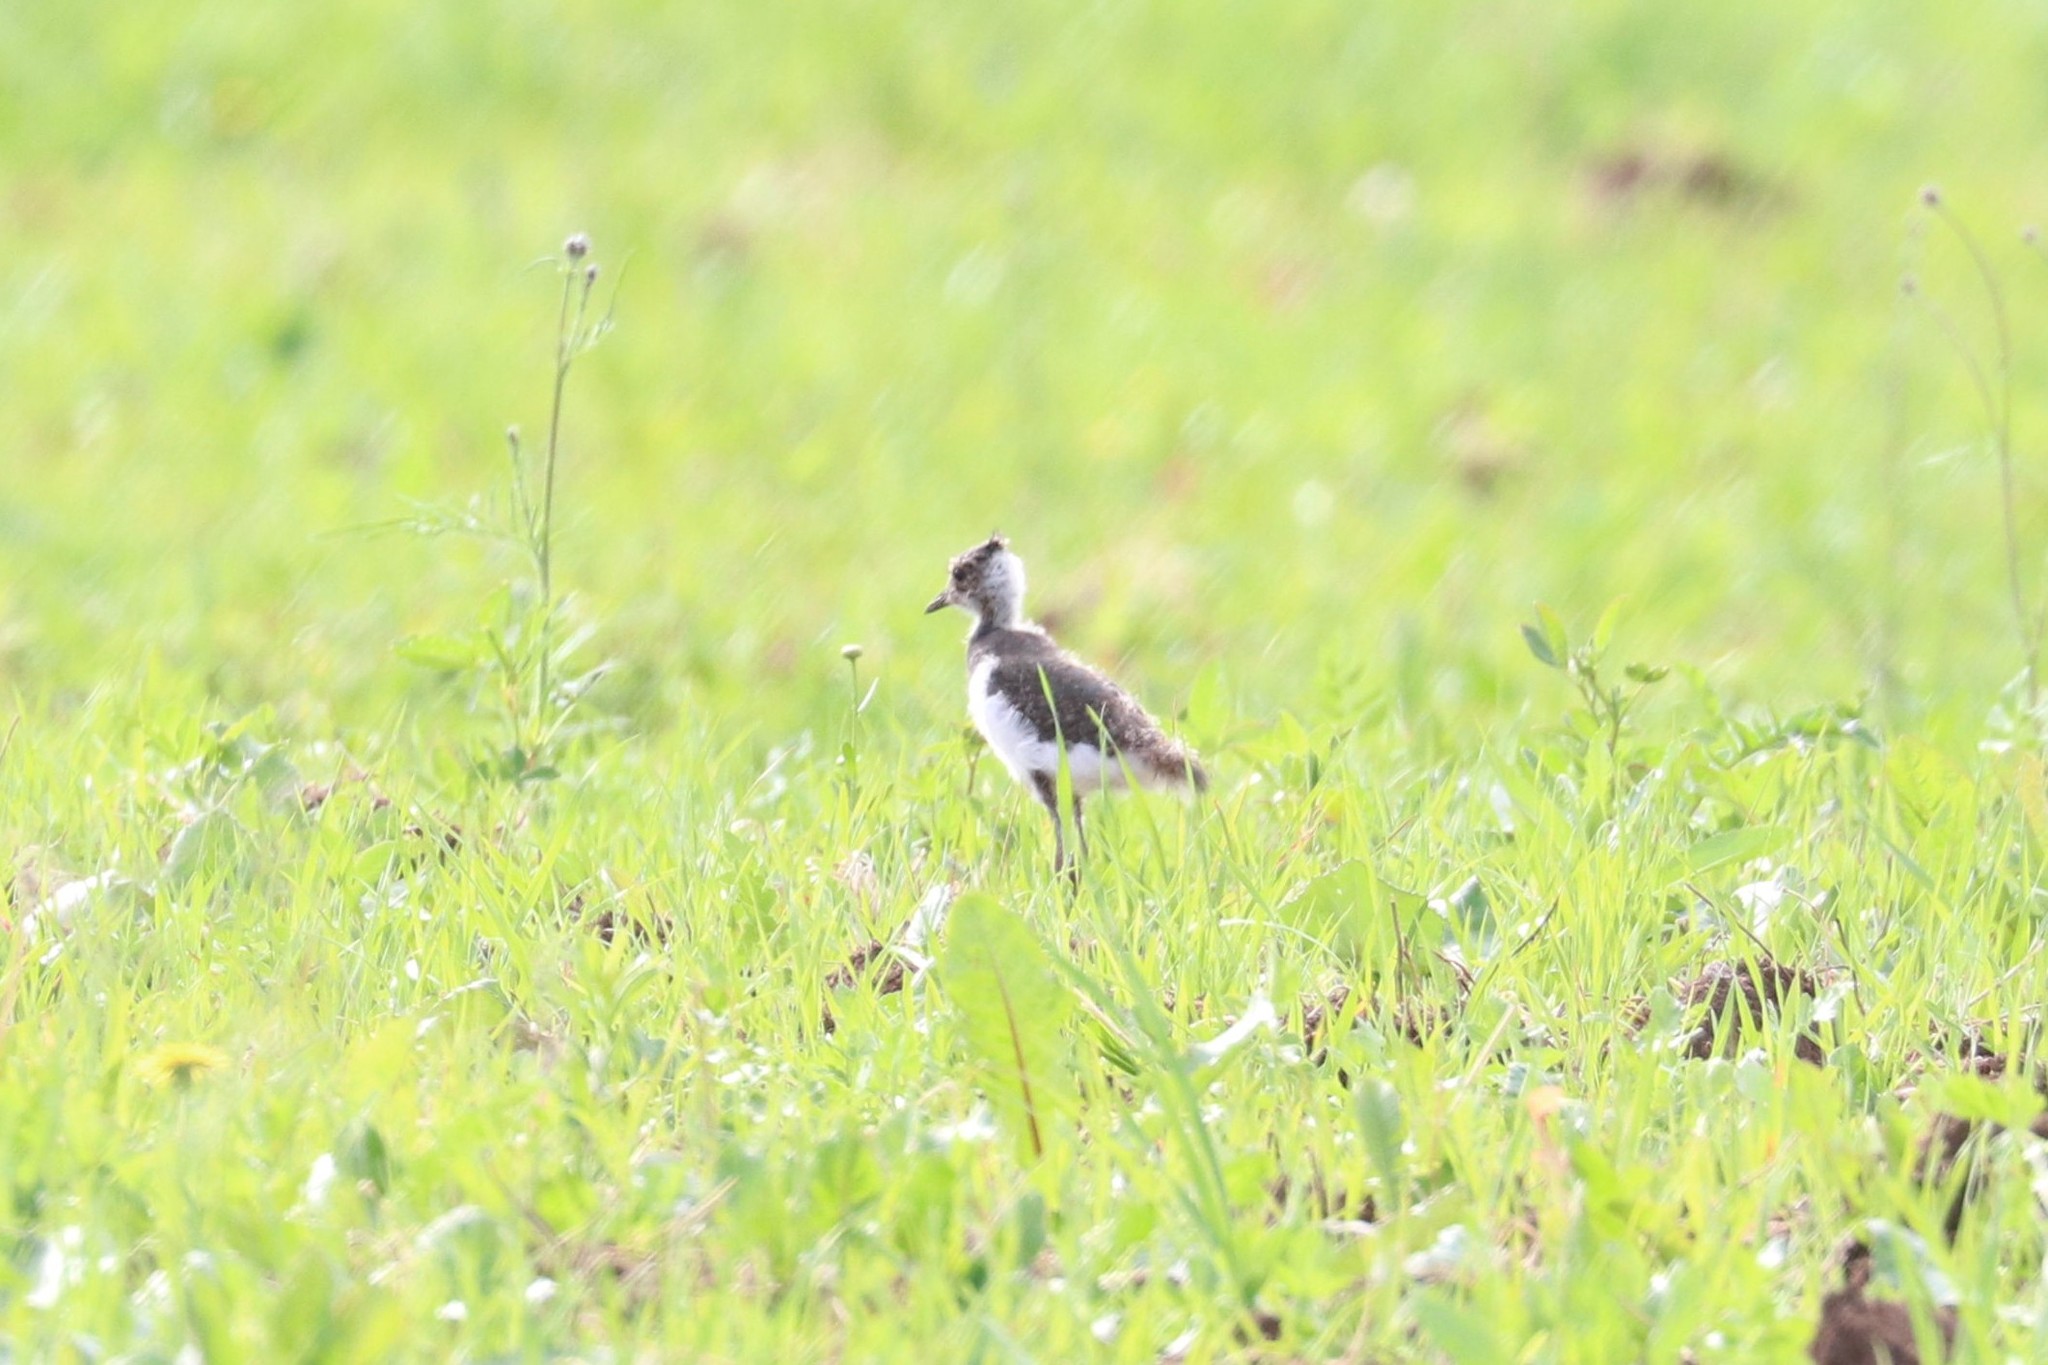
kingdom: Animalia
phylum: Chordata
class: Aves
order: Charadriiformes
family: Charadriidae
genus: Vanellus
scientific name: Vanellus vanellus
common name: Northern lapwing
